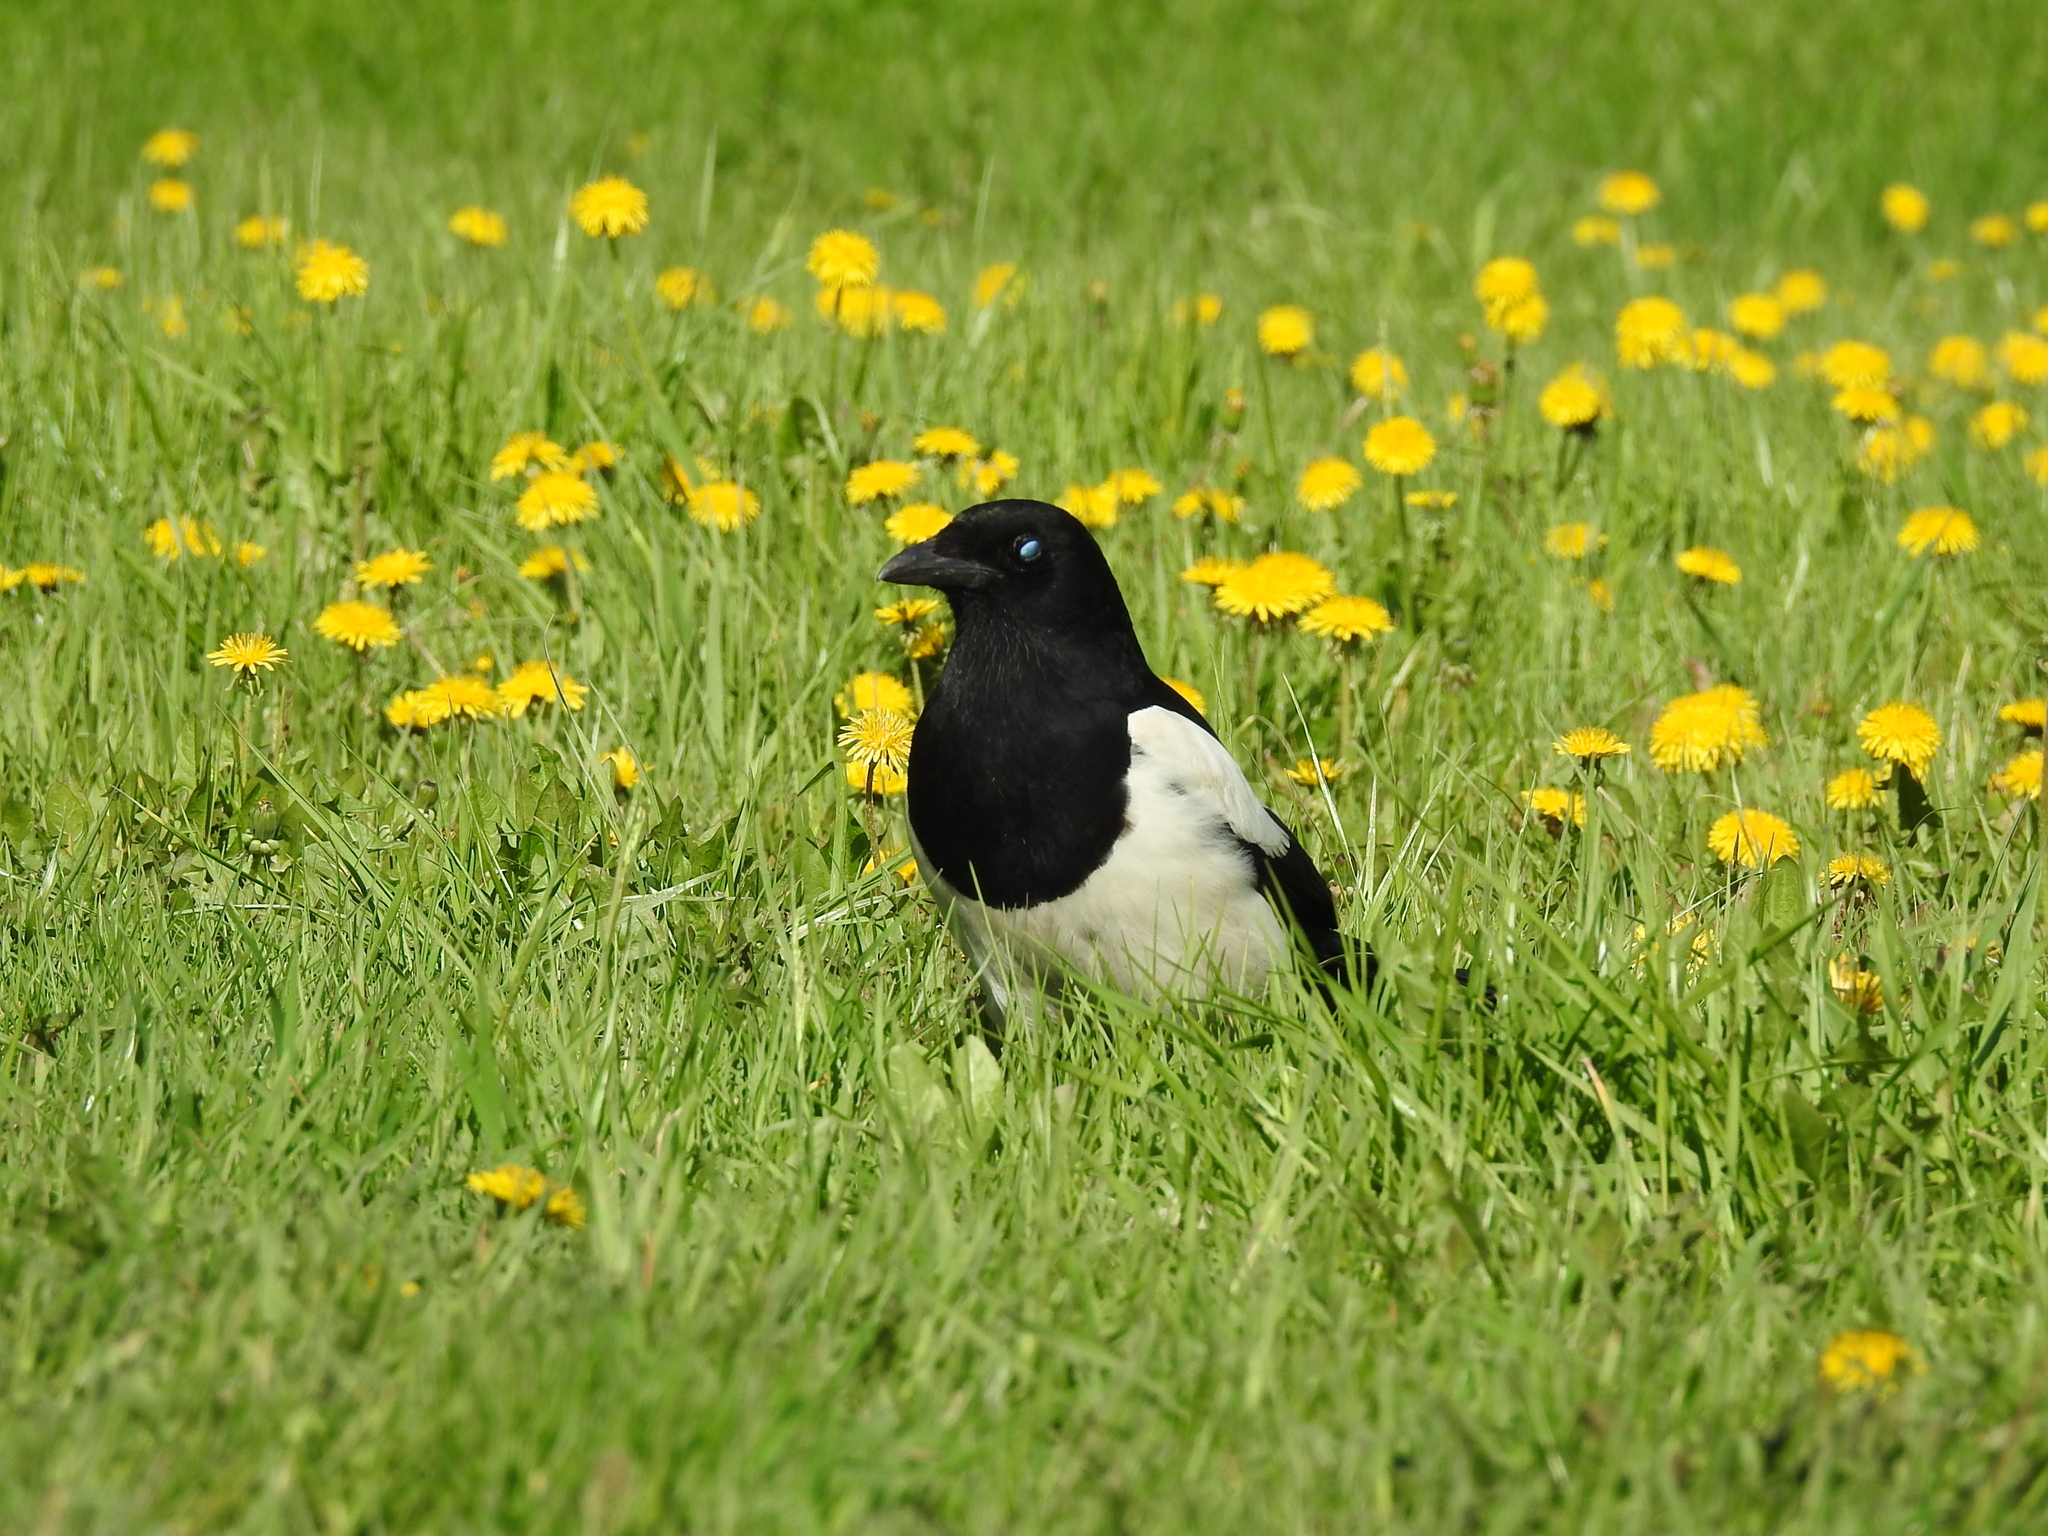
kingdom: Animalia
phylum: Chordata
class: Aves
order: Passeriformes
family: Corvidae
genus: Pica
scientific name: Pica pica
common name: Eurasian magpie
